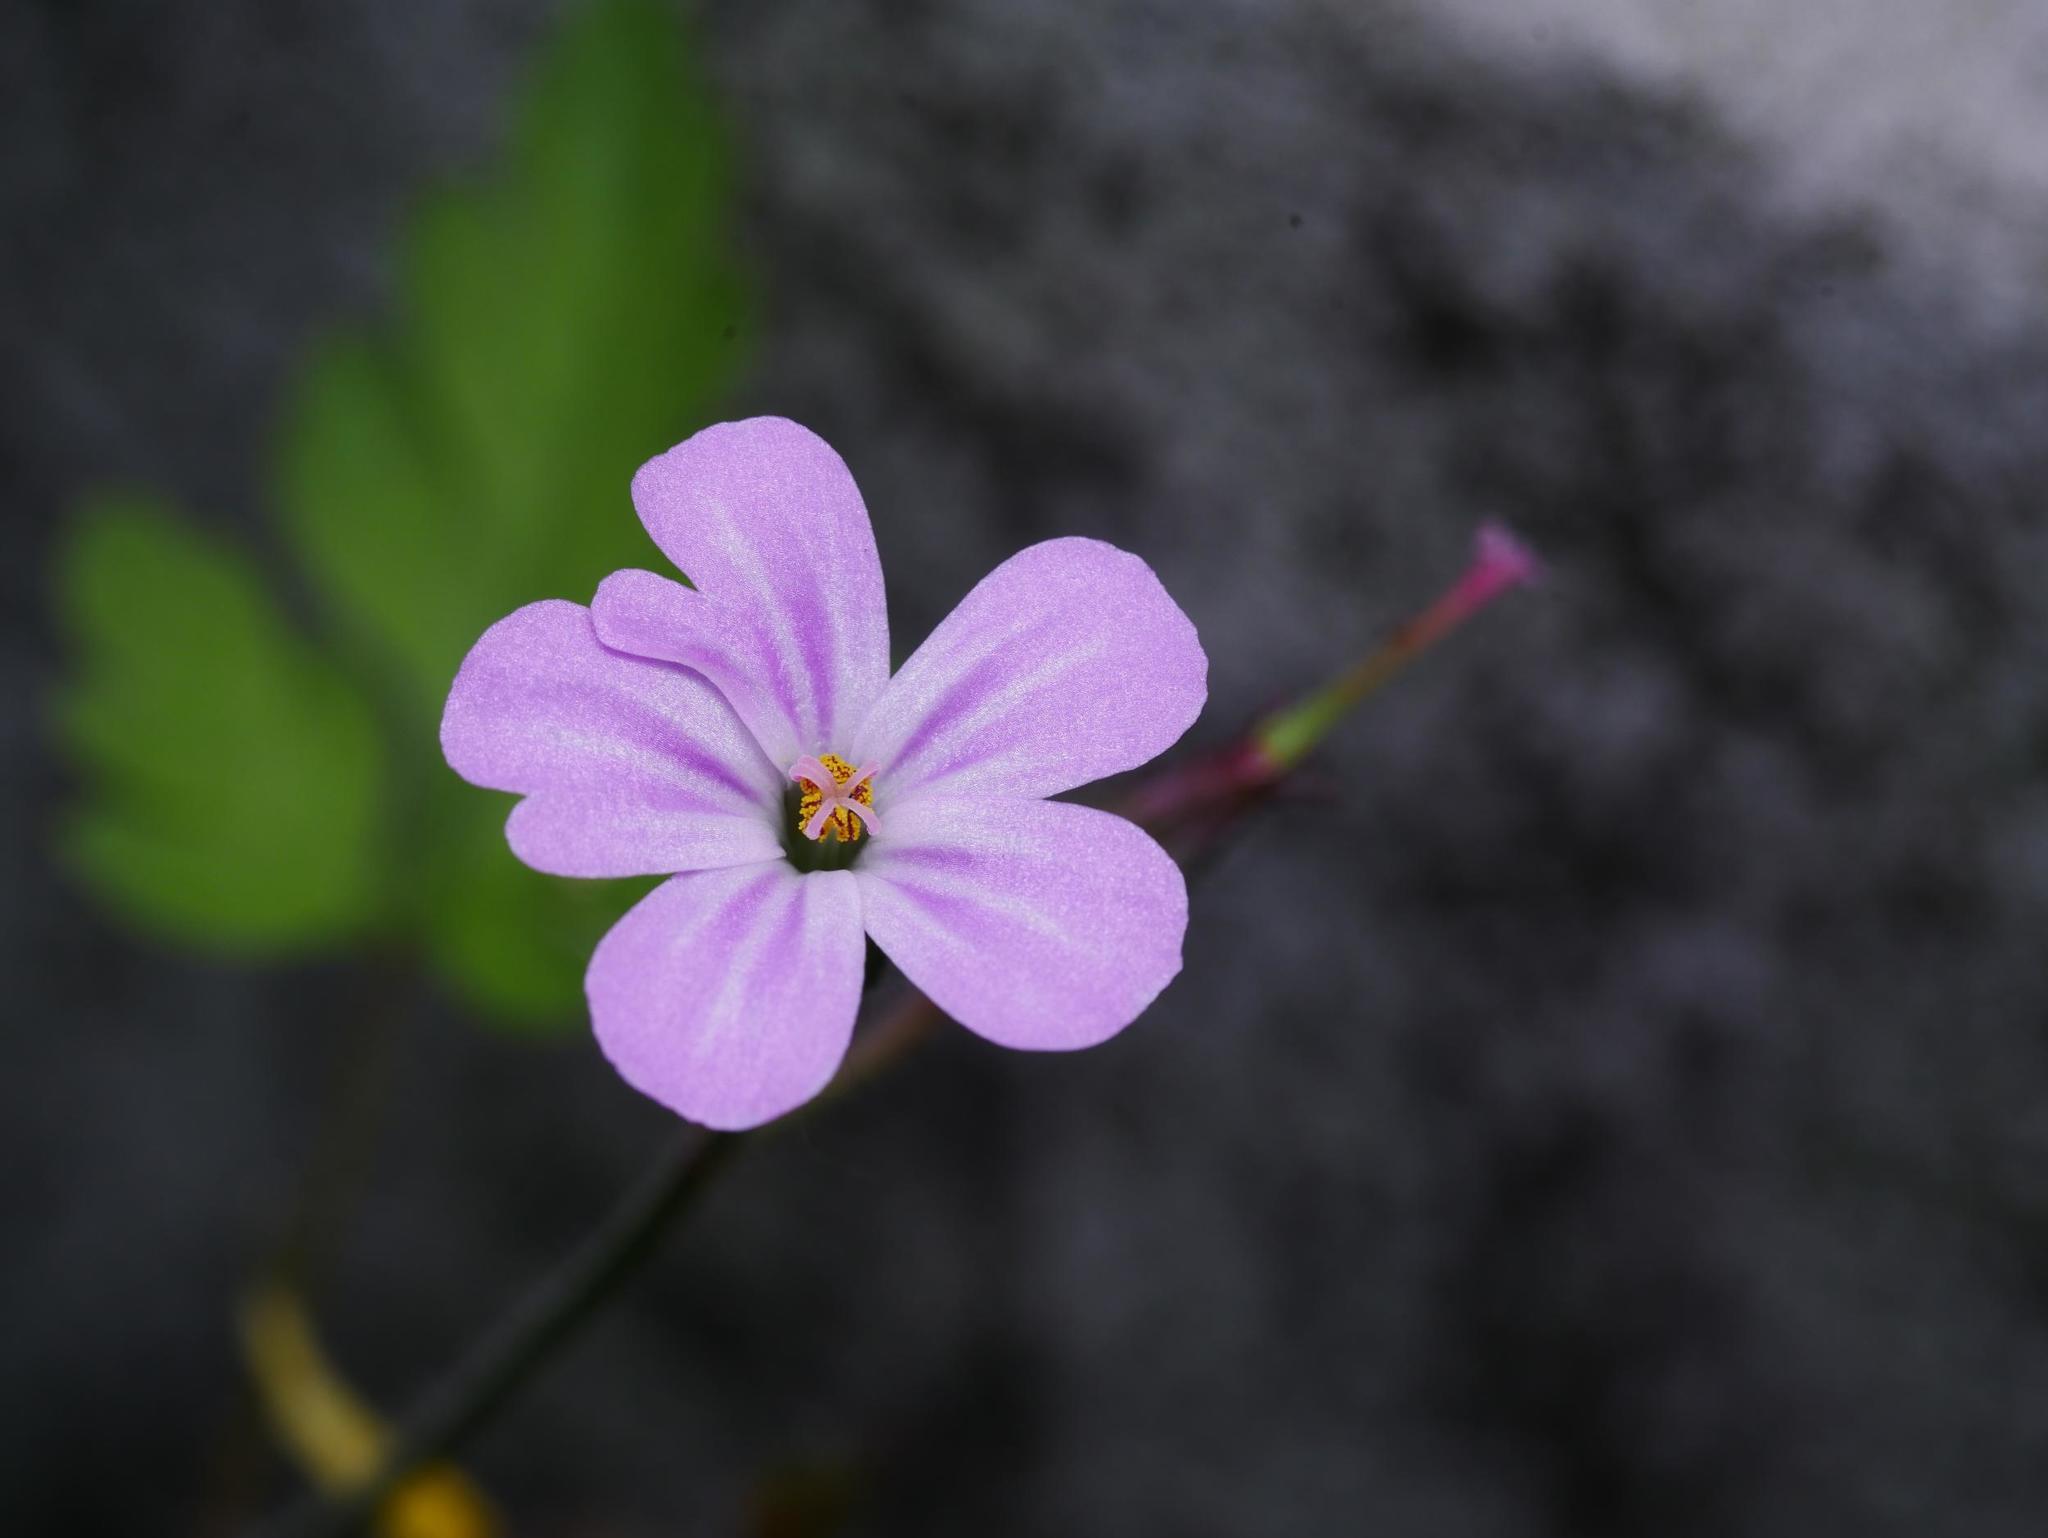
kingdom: Plantae
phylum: Tracheophyta
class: Magnoliopsida
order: Geraniales
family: Geraniaceae
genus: Geranium
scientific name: Geranium robertianum
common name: Herb-robert
